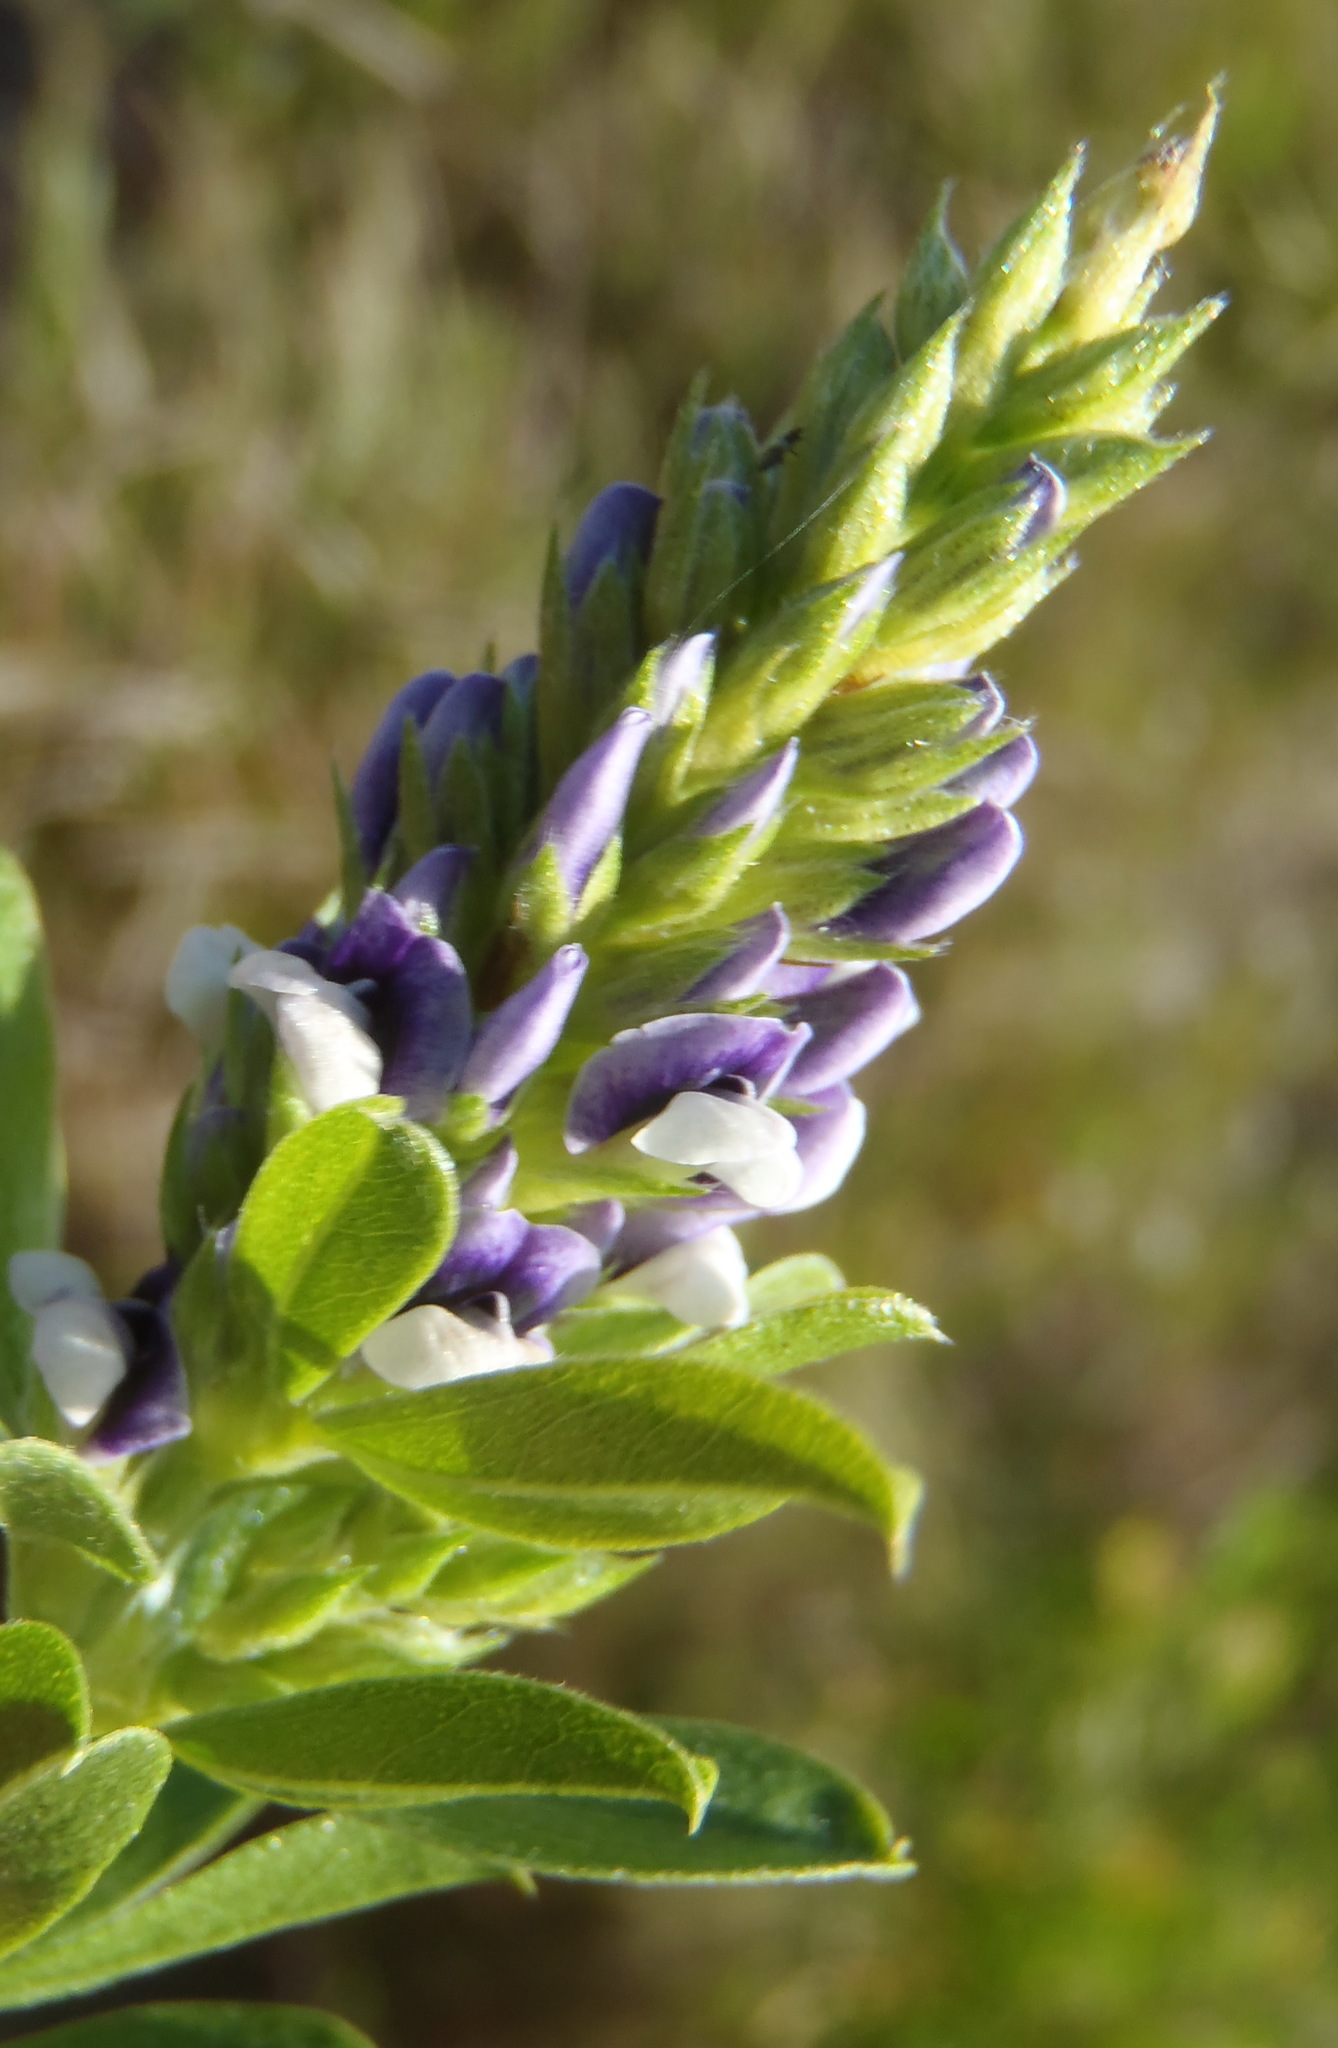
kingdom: Plantae
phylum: Tracheophyta
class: Magnoliopsida
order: Fabales
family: Fabaceae
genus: Psoralea
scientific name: Psoralea spicata
